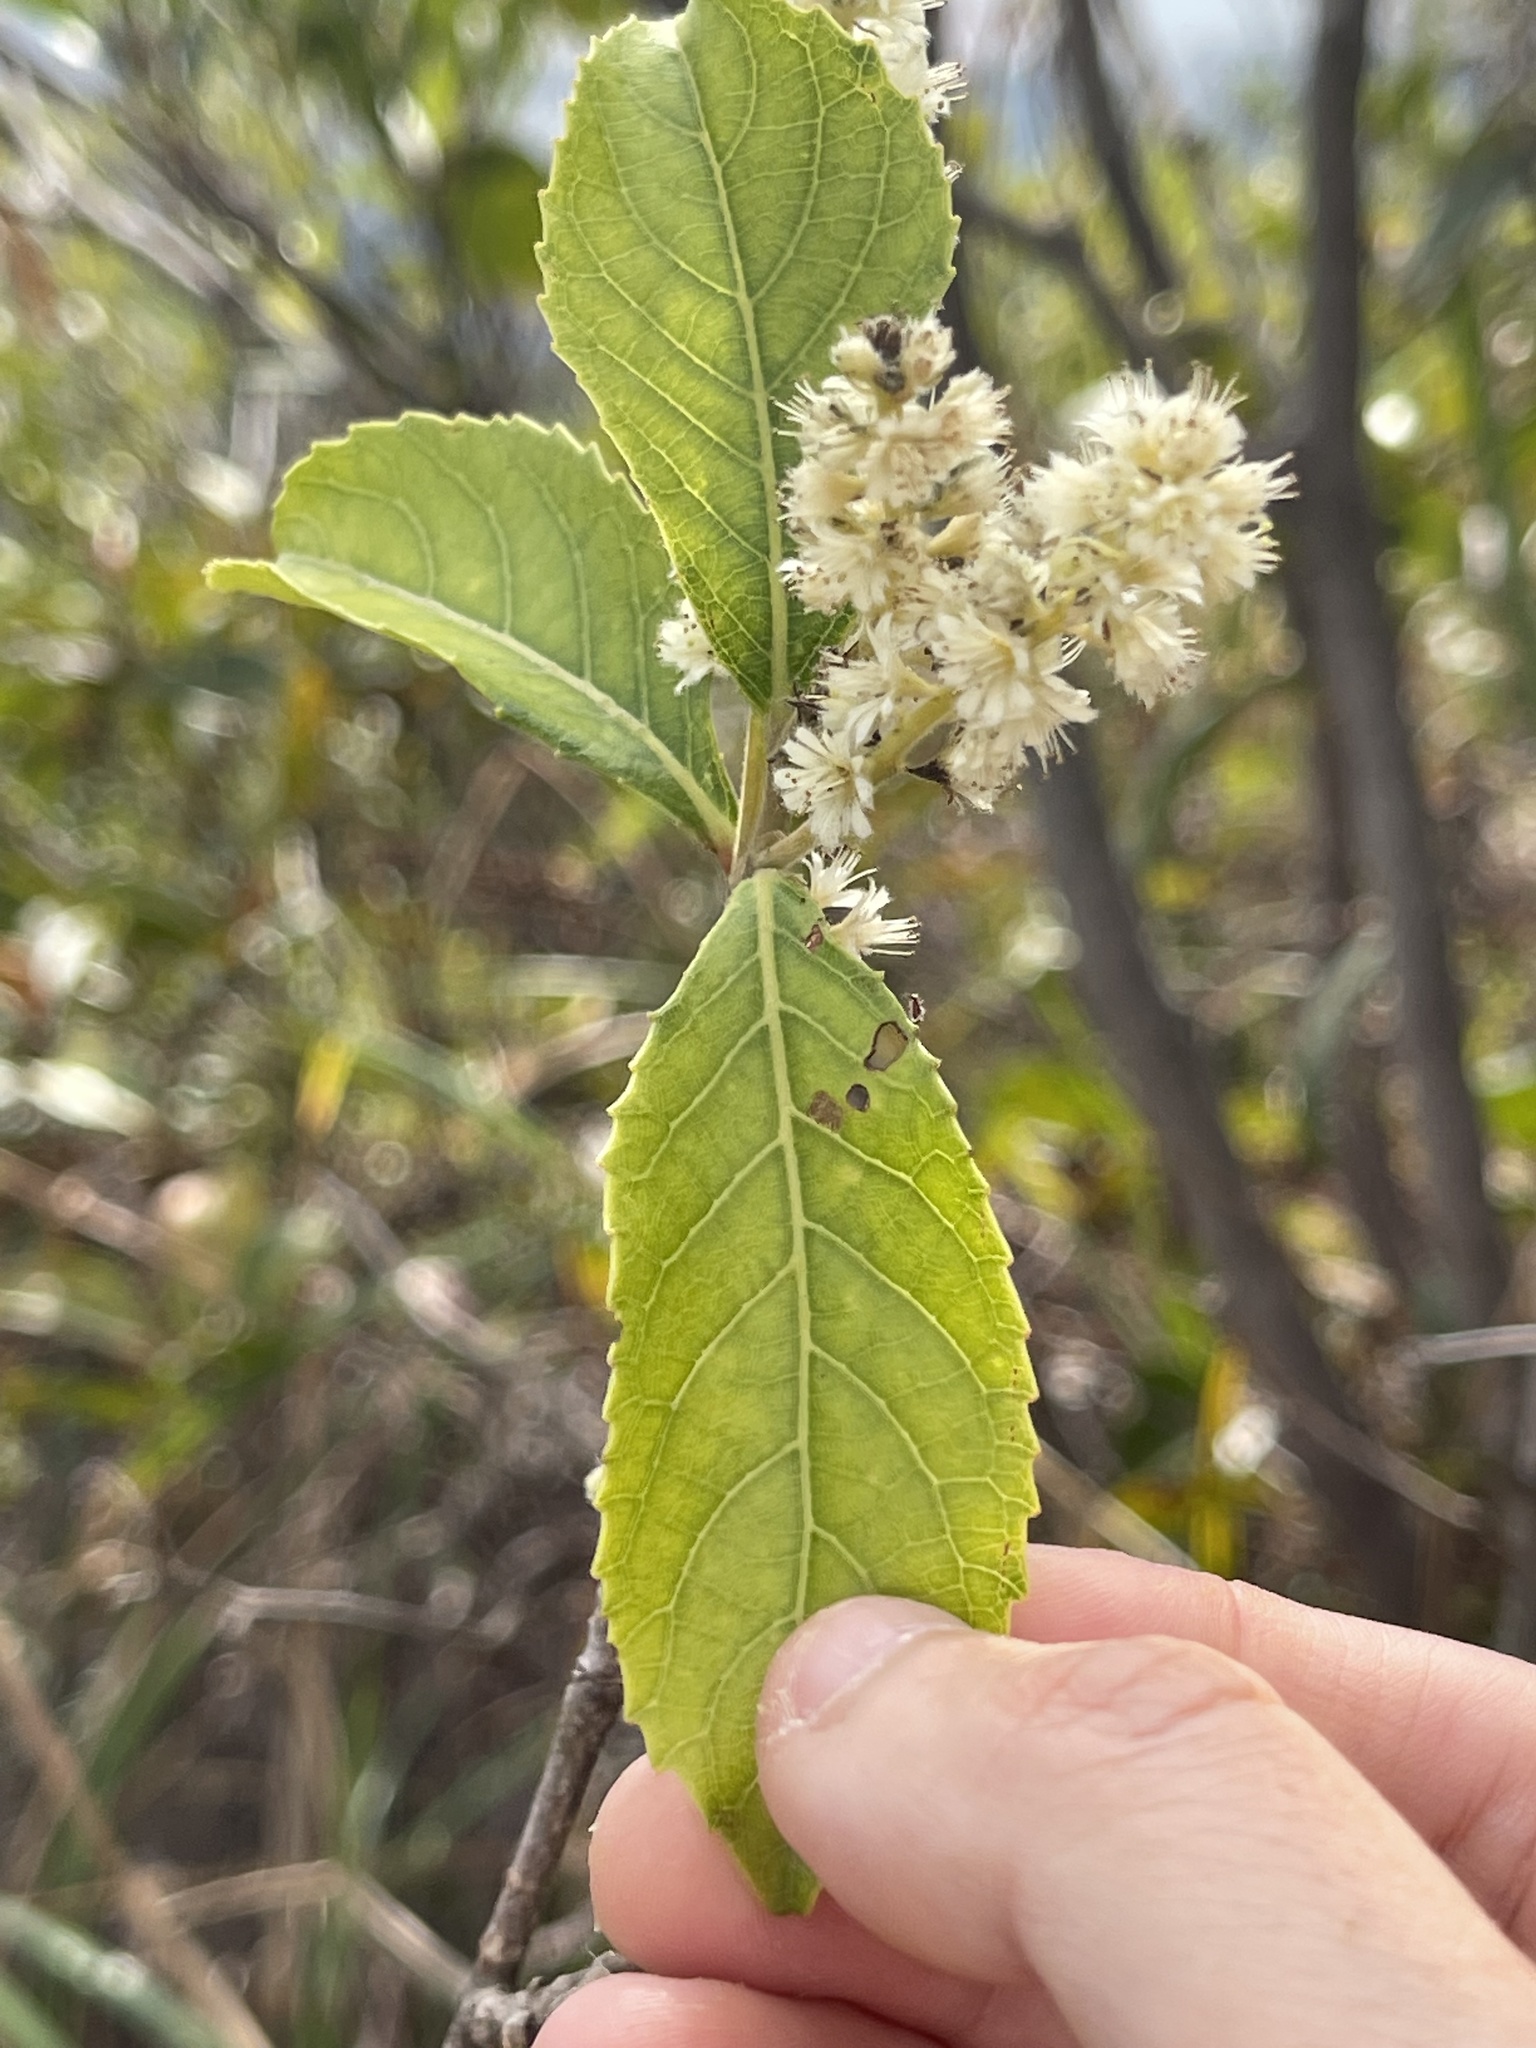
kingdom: Plantae
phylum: Tracheophyta
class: Magnoliopsida
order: Malpighiales
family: Salicaceae
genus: Homalium
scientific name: Homalium cochinchinensis
